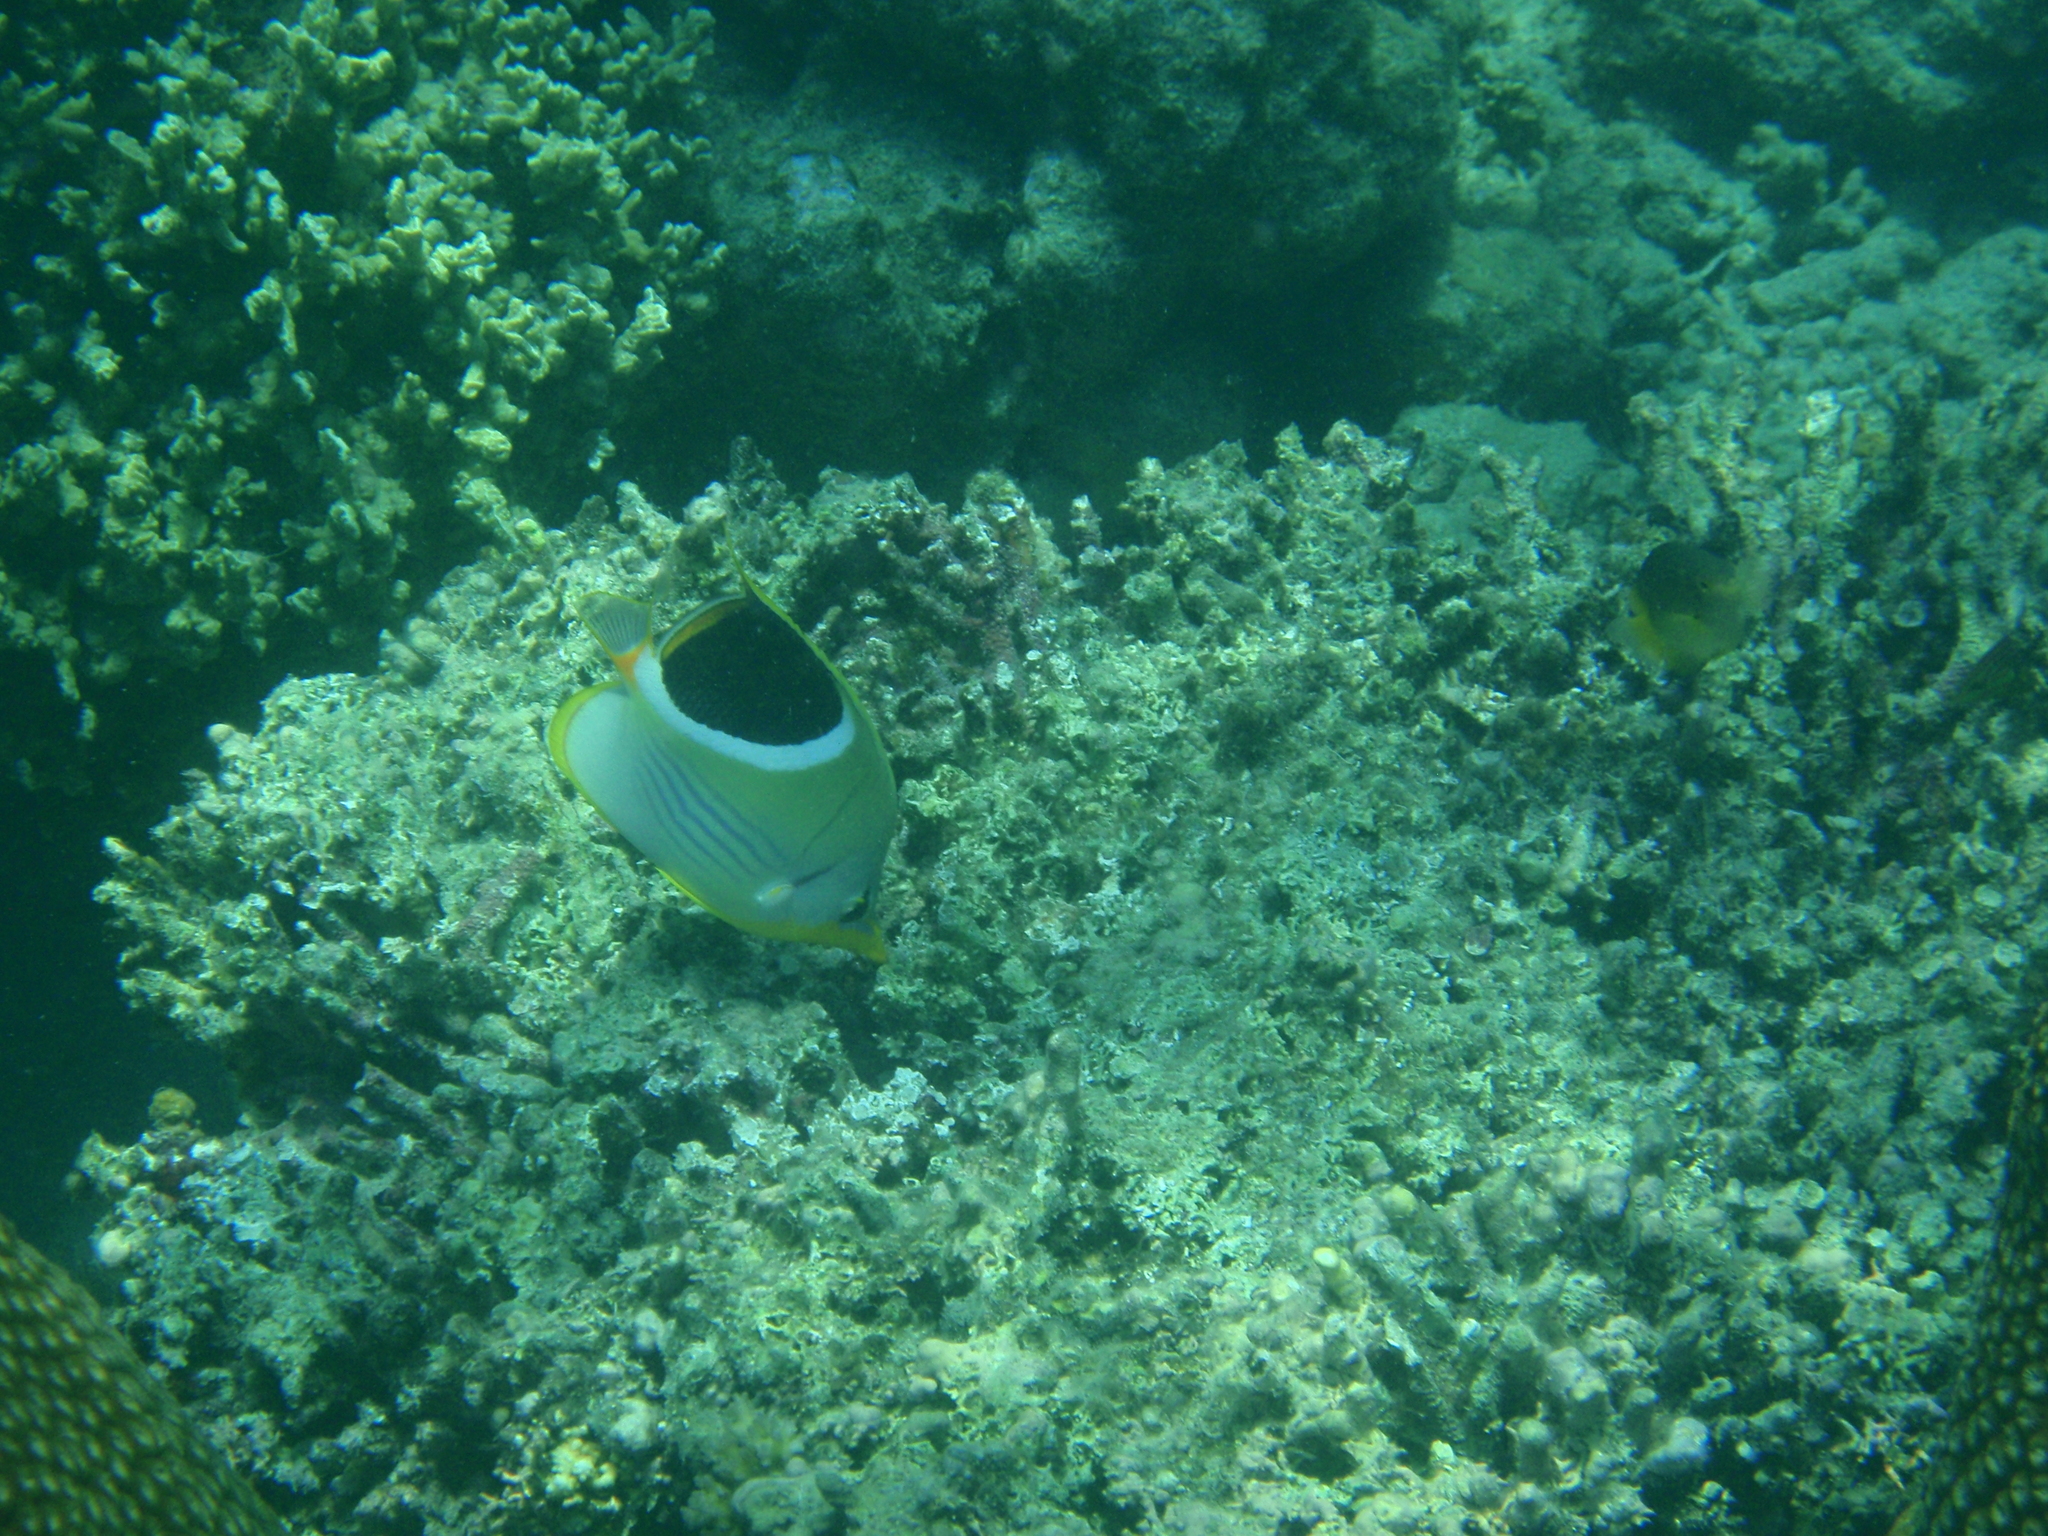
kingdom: Animalia
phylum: Chordata
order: Perciformes
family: Chaetodontidae
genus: Chaetodon
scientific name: Chaetodon ephippium
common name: Saddled butterflyfish
